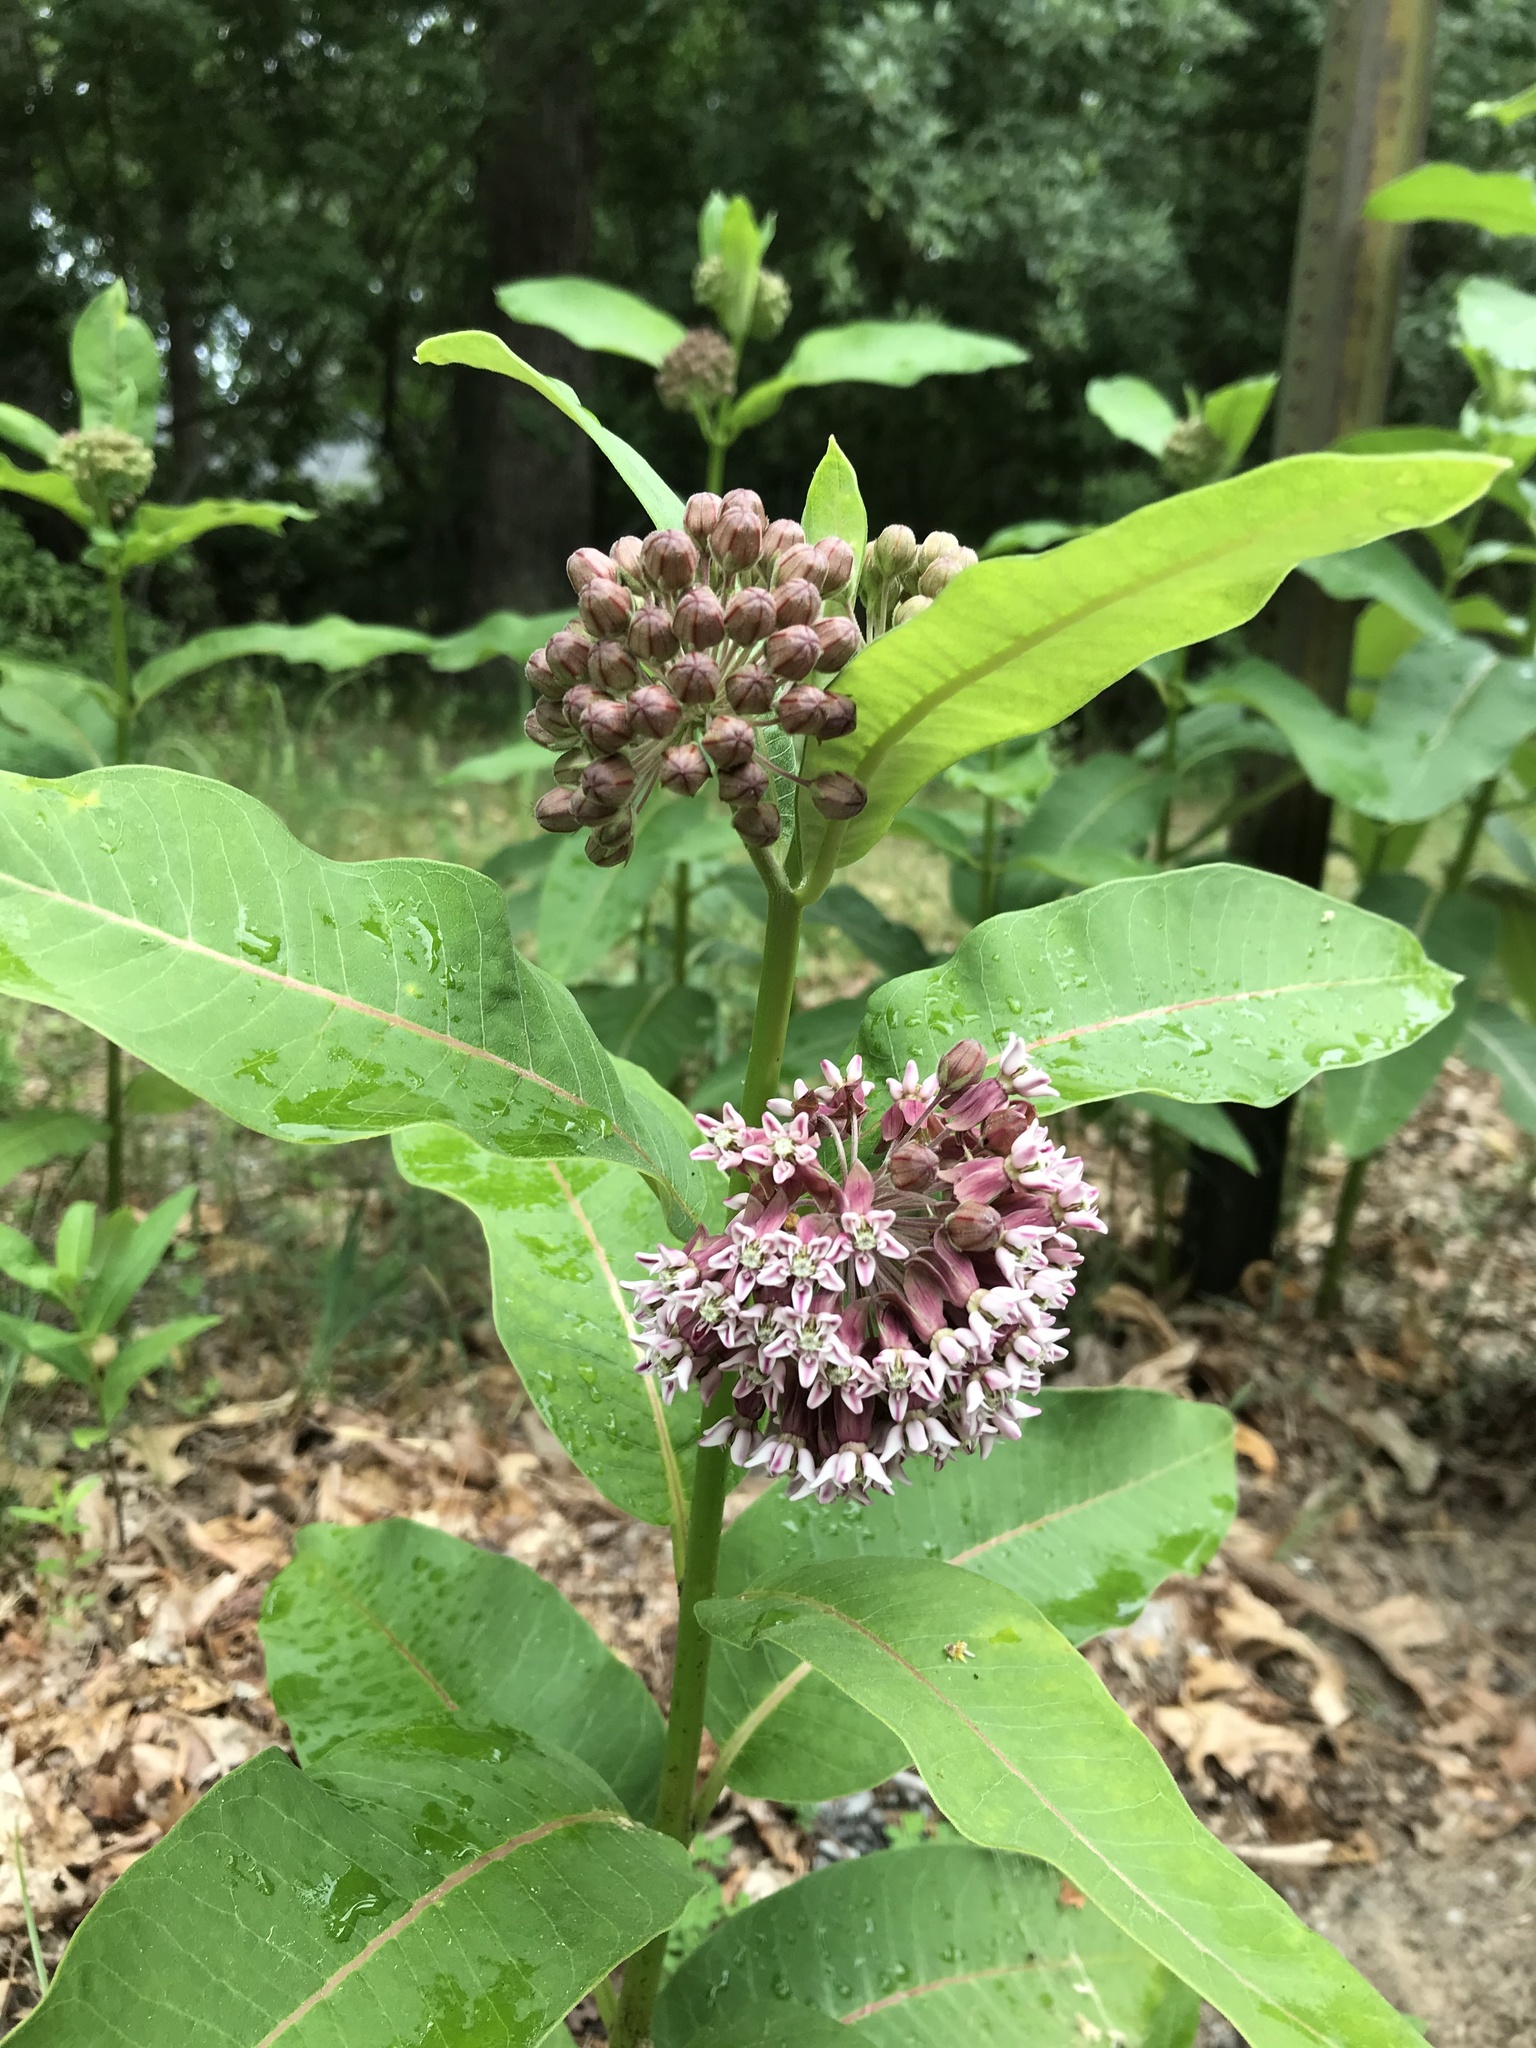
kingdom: Plantae
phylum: Tracheophyta
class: Magnoliopsida
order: Gentianales
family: Apocynaceae
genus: Asclepias
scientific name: Asclepias syriaca
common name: Common milkweed
